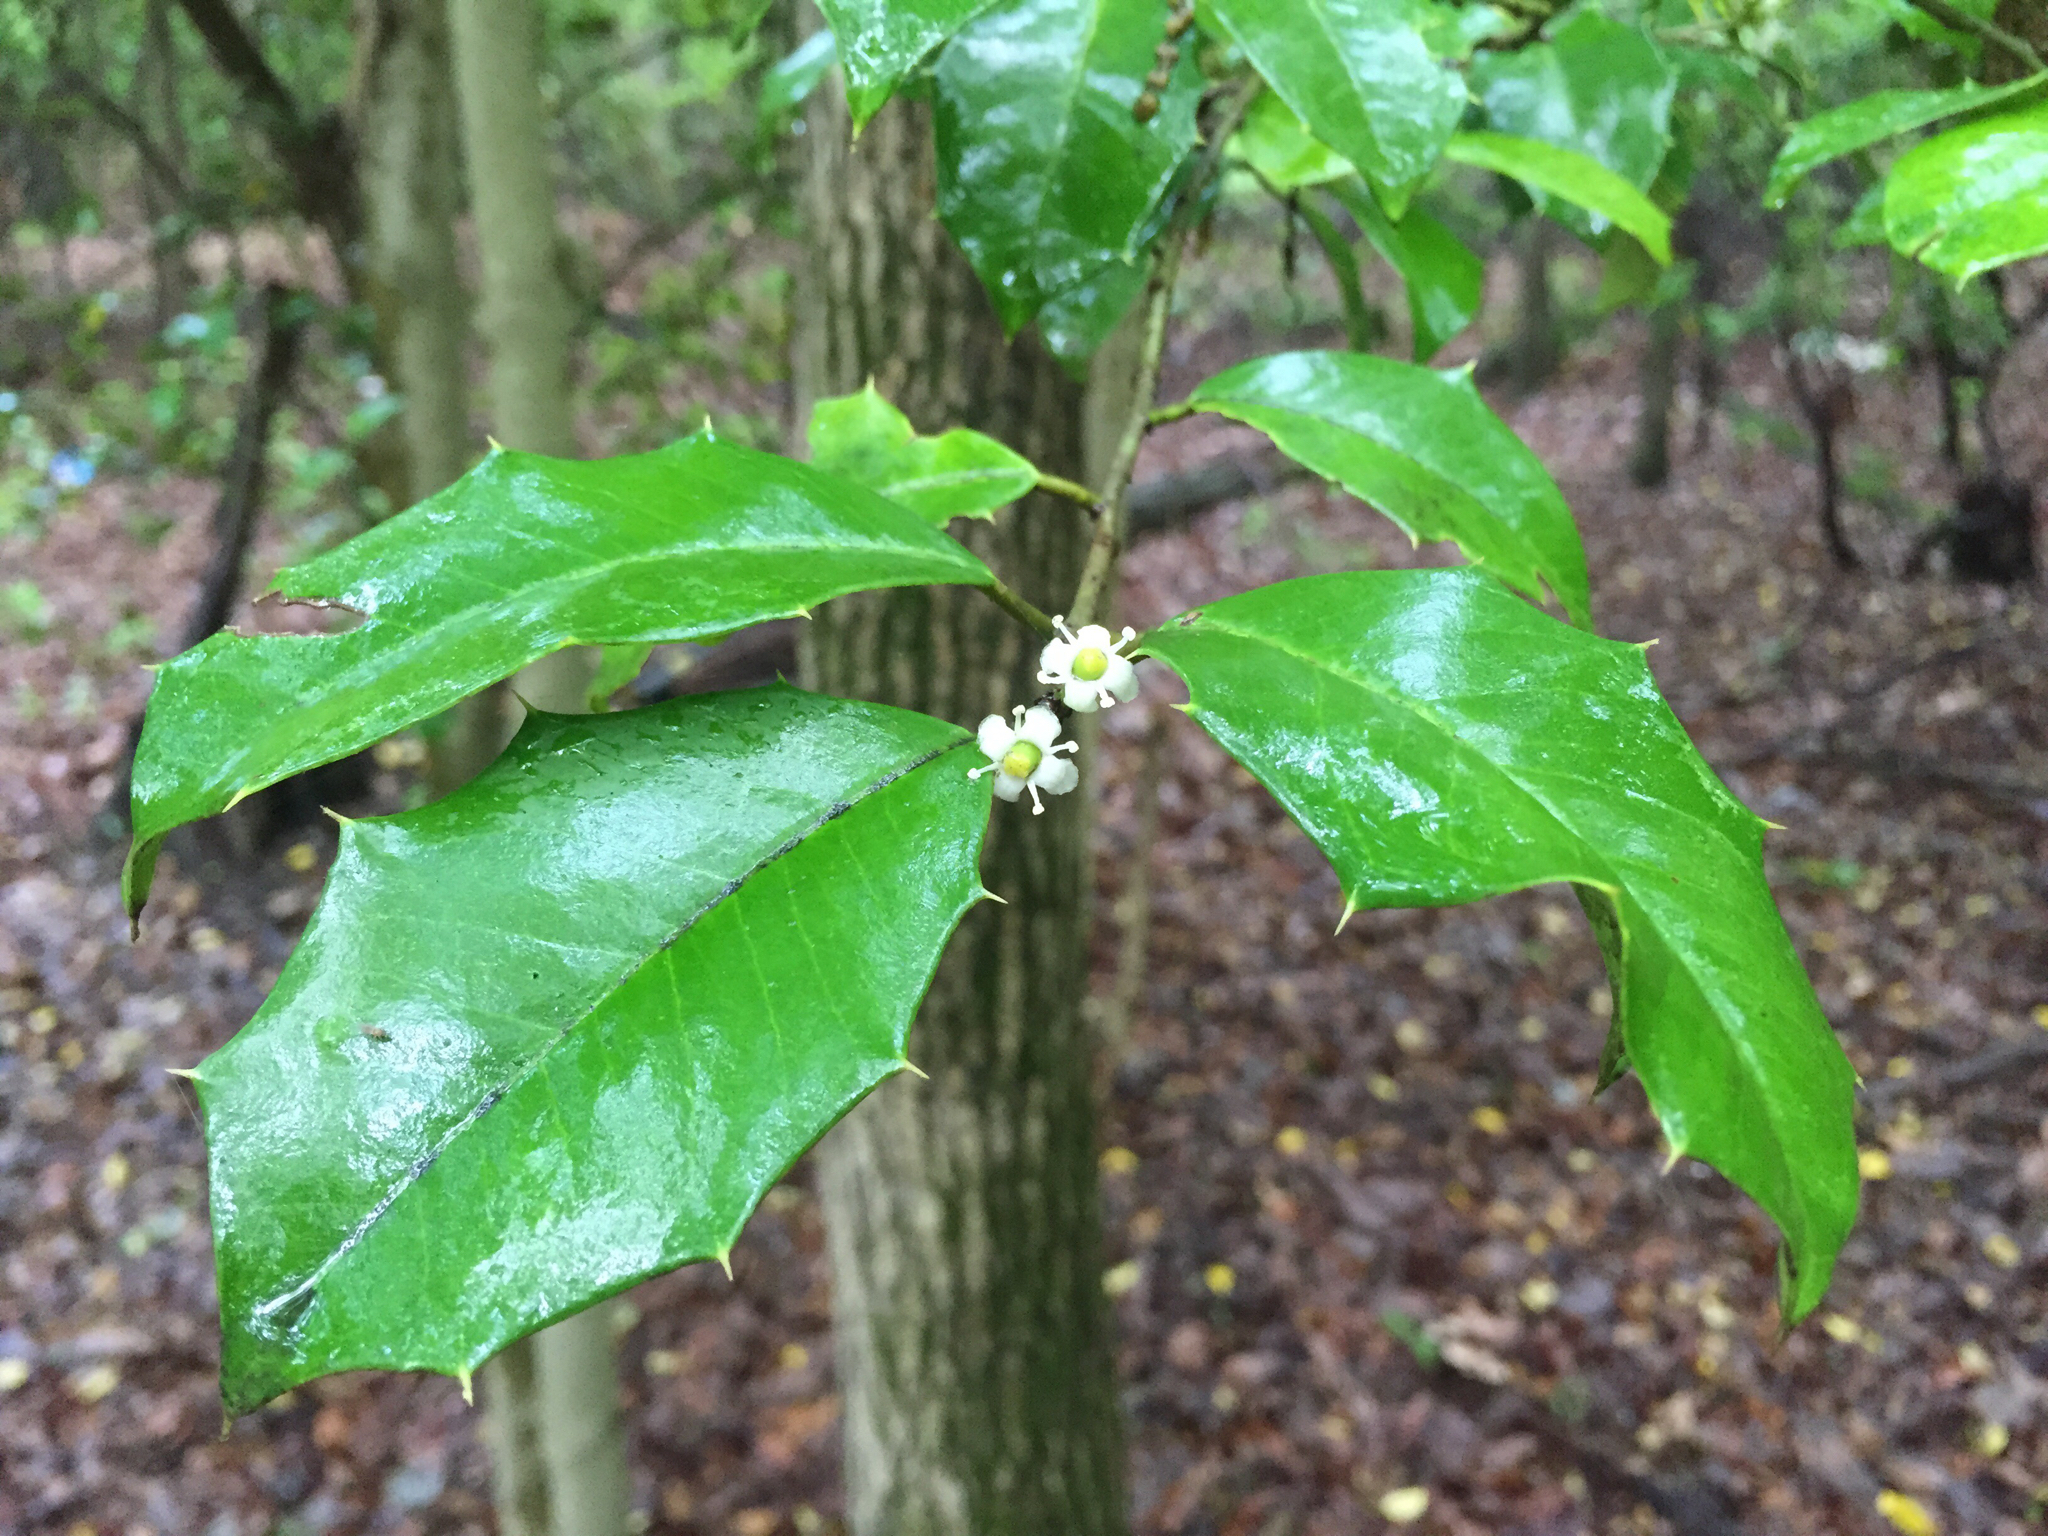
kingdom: Plantae
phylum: Tracheophyta
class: Magnoliopsida
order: Aquifoliales
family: Aquifoliaceae
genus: Ilex
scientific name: Ilex opaca
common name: American holly
